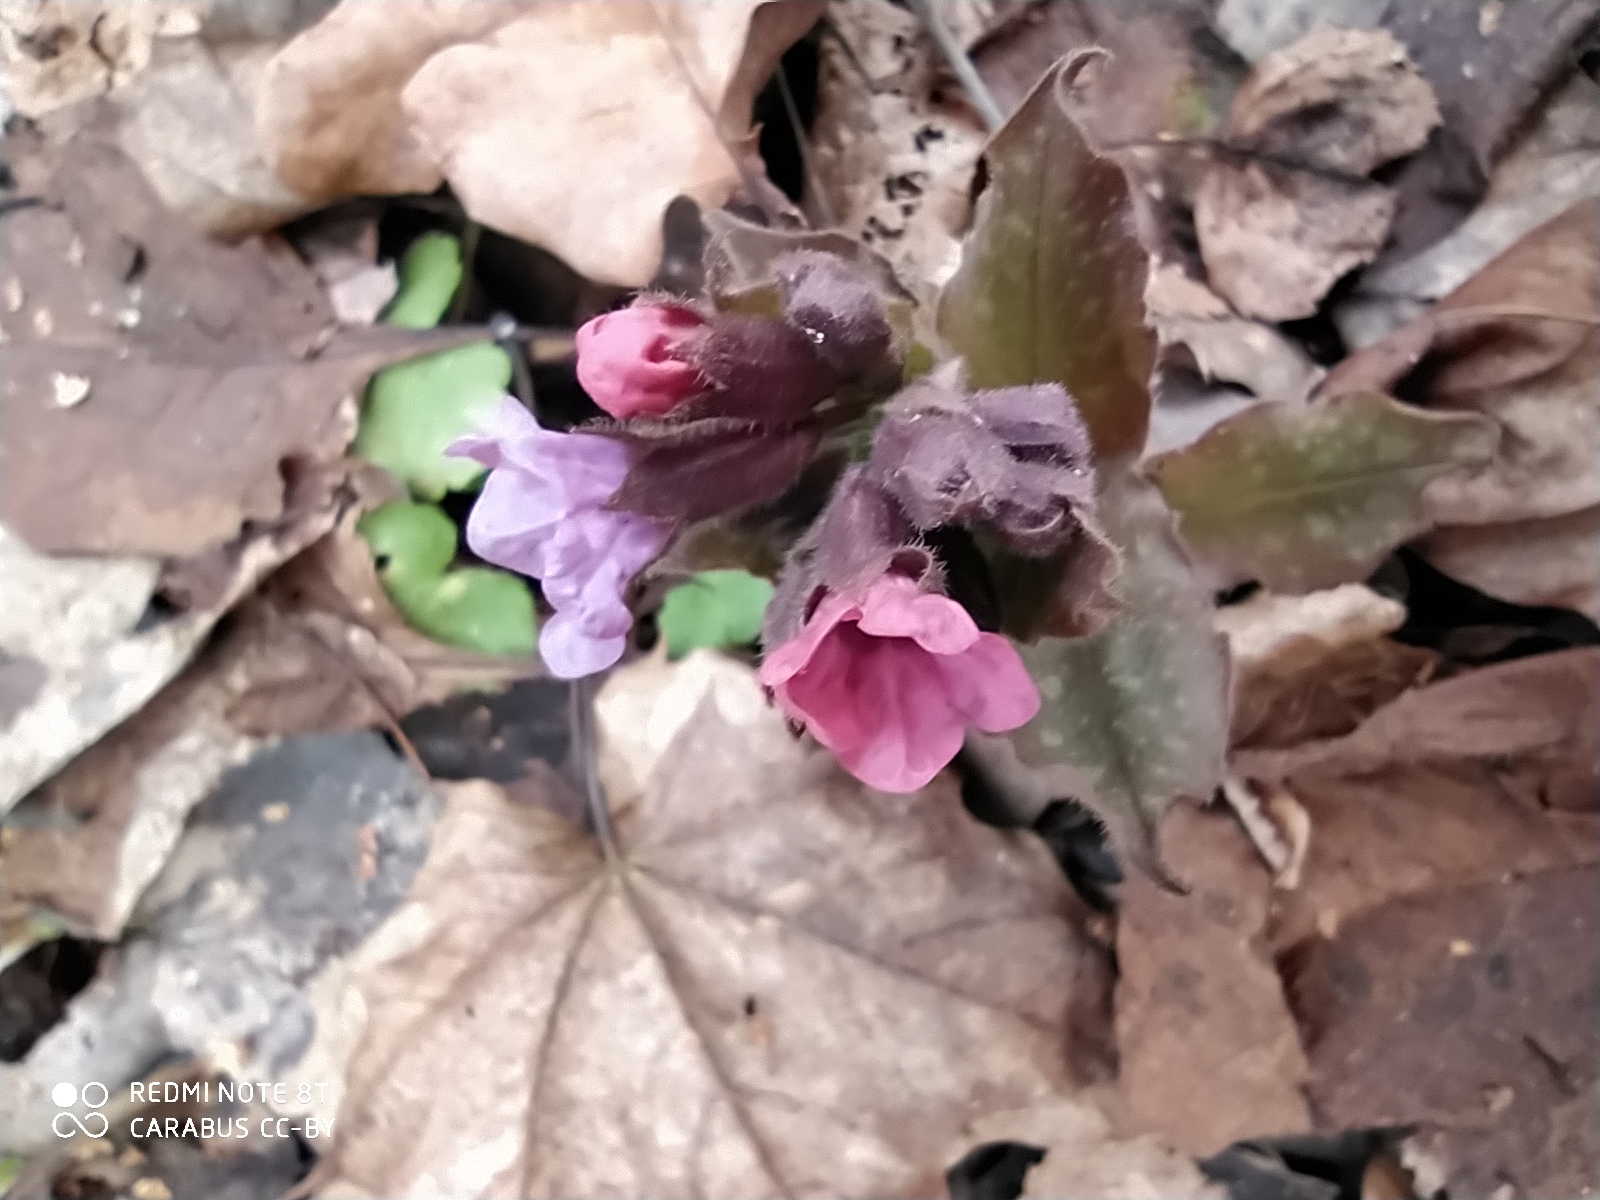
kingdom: Plantae
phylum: Tracheophyta
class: Magnoliopsida
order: Boraginales
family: Boraginaceae
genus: Pulmonaria
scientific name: Pulmonaria obscura
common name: Suffolk lungwort
